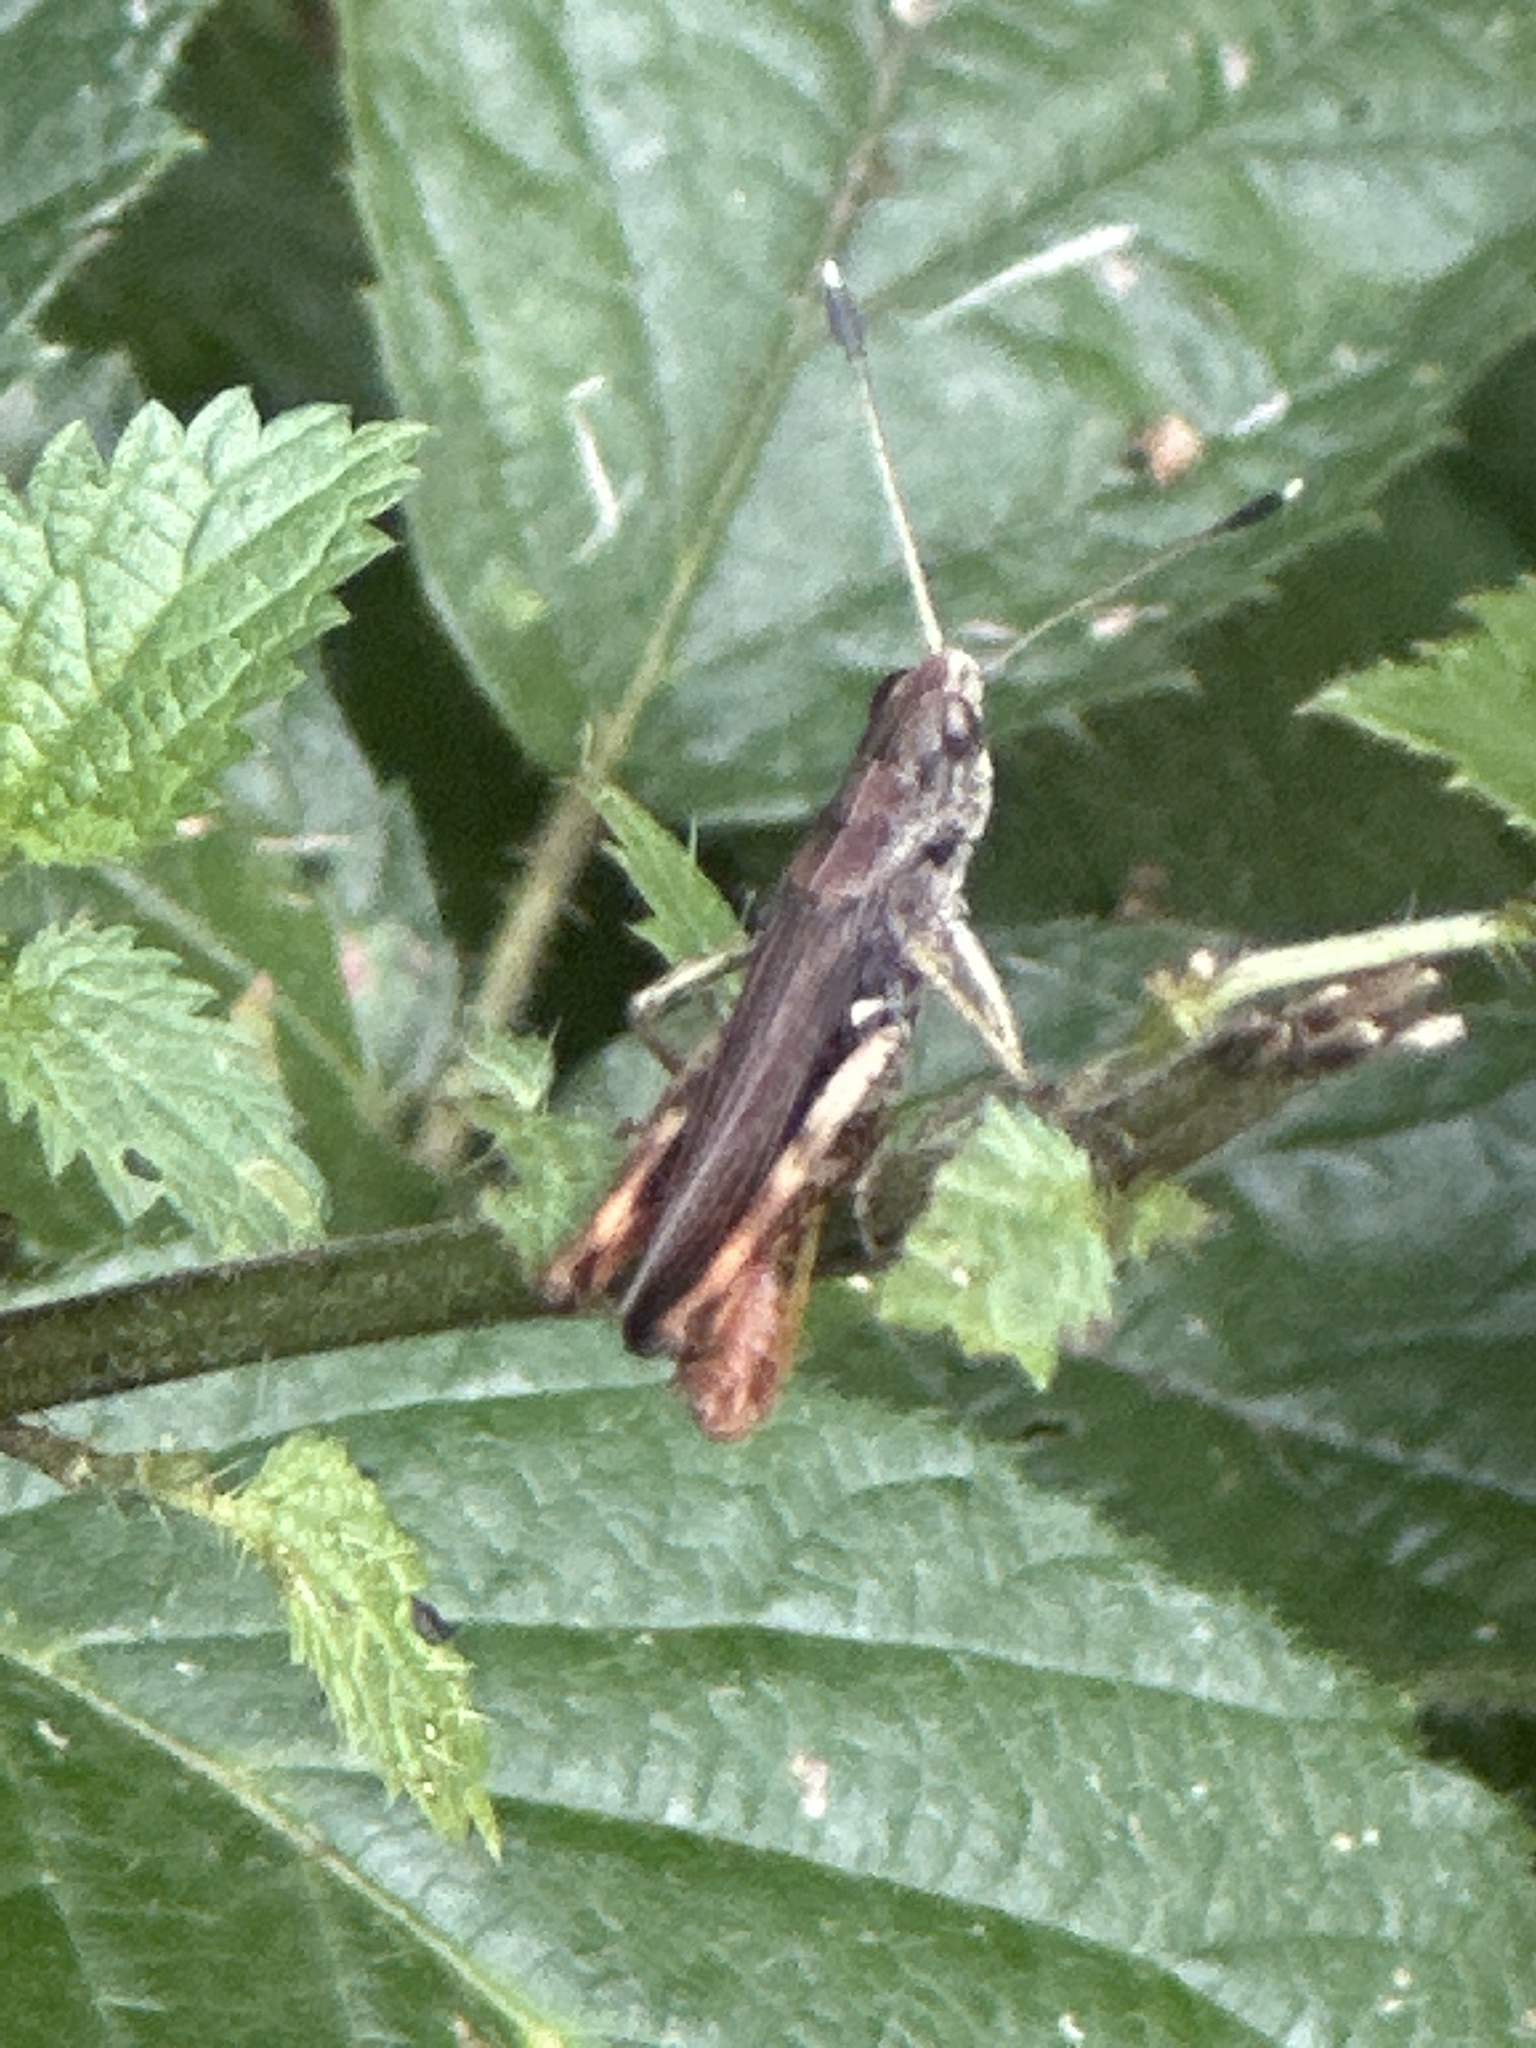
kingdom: Animalia
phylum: Arthropoda
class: Insecta
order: Orthoptera
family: Acrididae
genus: Gomphocerippus
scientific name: Gomphocerippus rufus
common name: Rufous grasshopper
